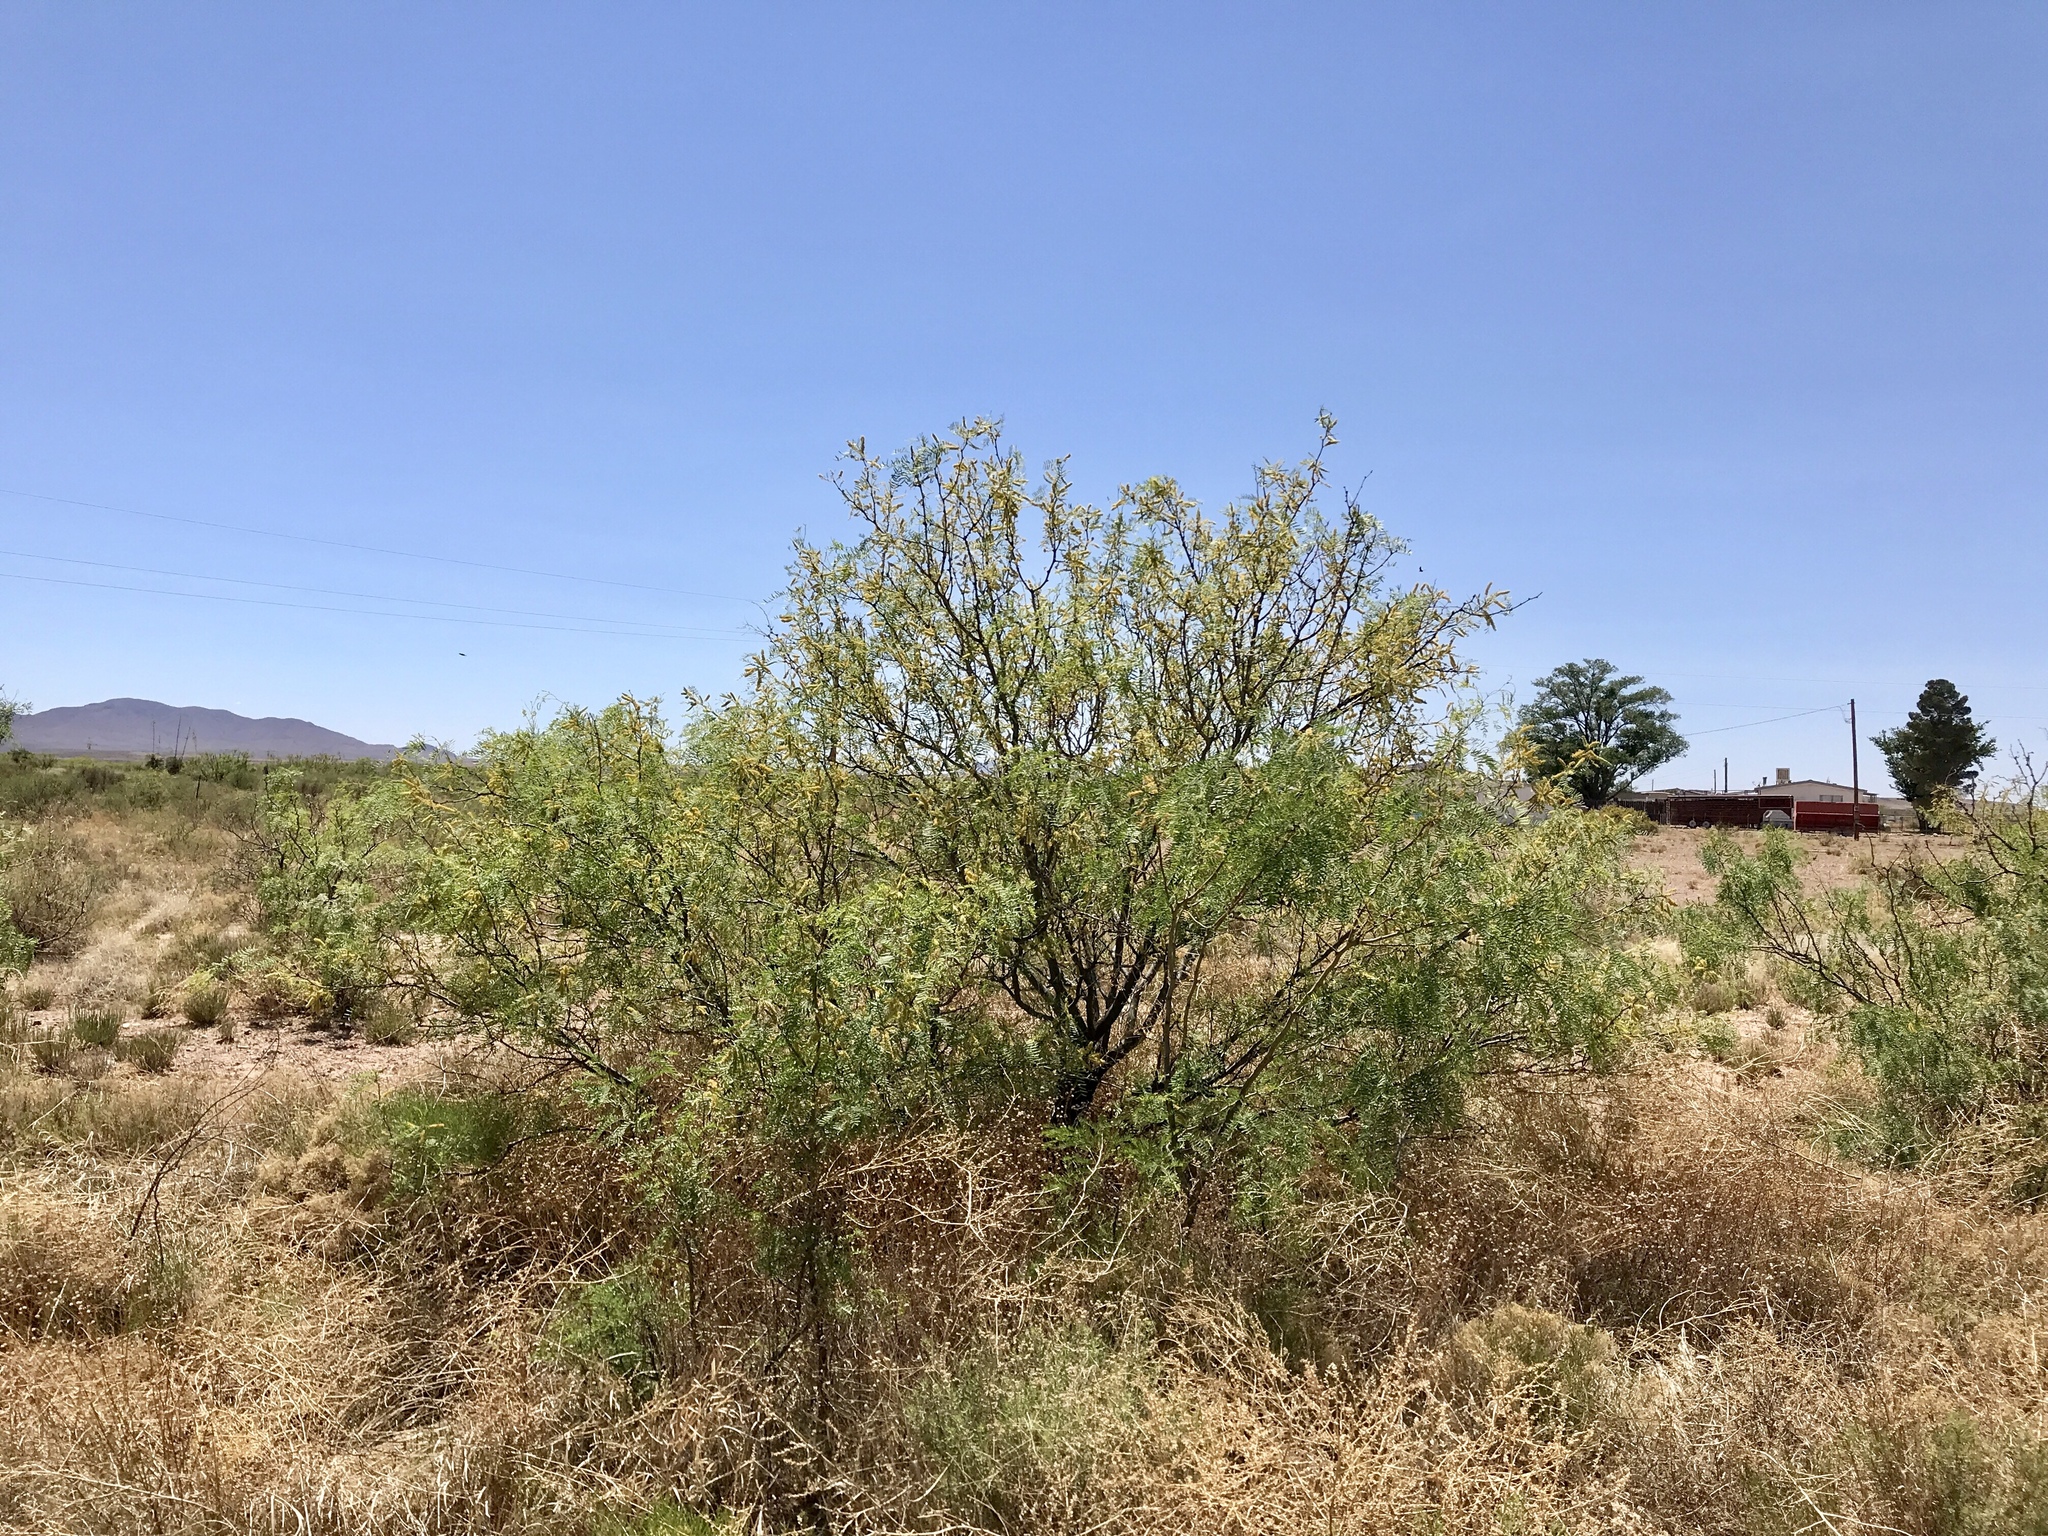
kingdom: Plantae
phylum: Tracheophyta
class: Magnoliopsida
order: Fabales
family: Fabaceae
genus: Prosopis
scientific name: Prosopis glandulosa
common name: Honey mesquite
